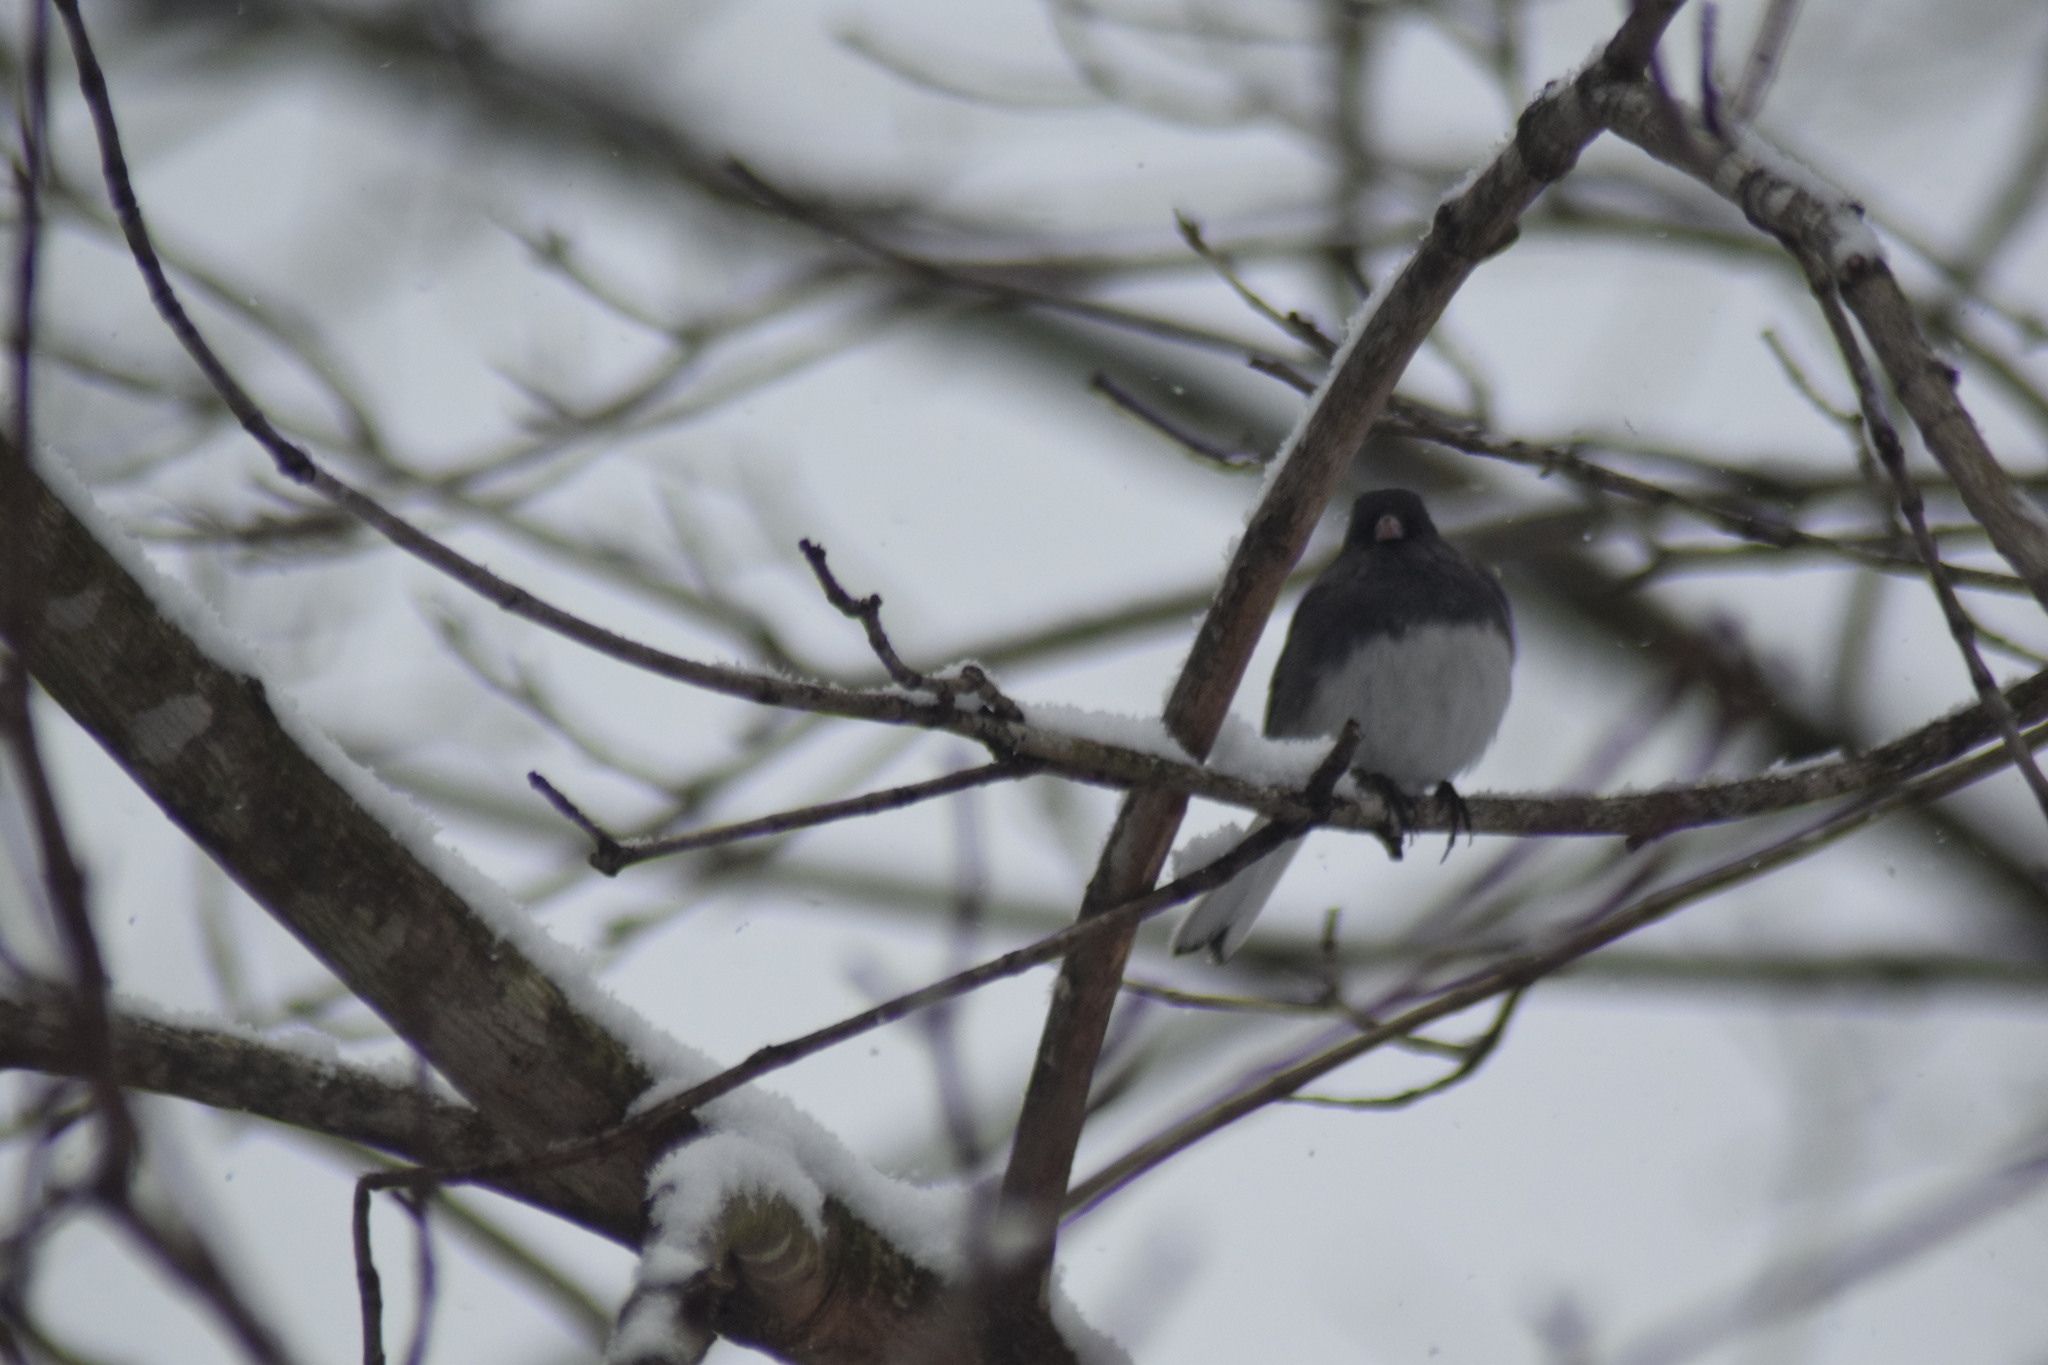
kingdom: Animalia
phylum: Chordata
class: Aves
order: Passeriformes
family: Passerellidae
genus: Junco
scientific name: Junco hyemalis
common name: Dark-eyed junco
